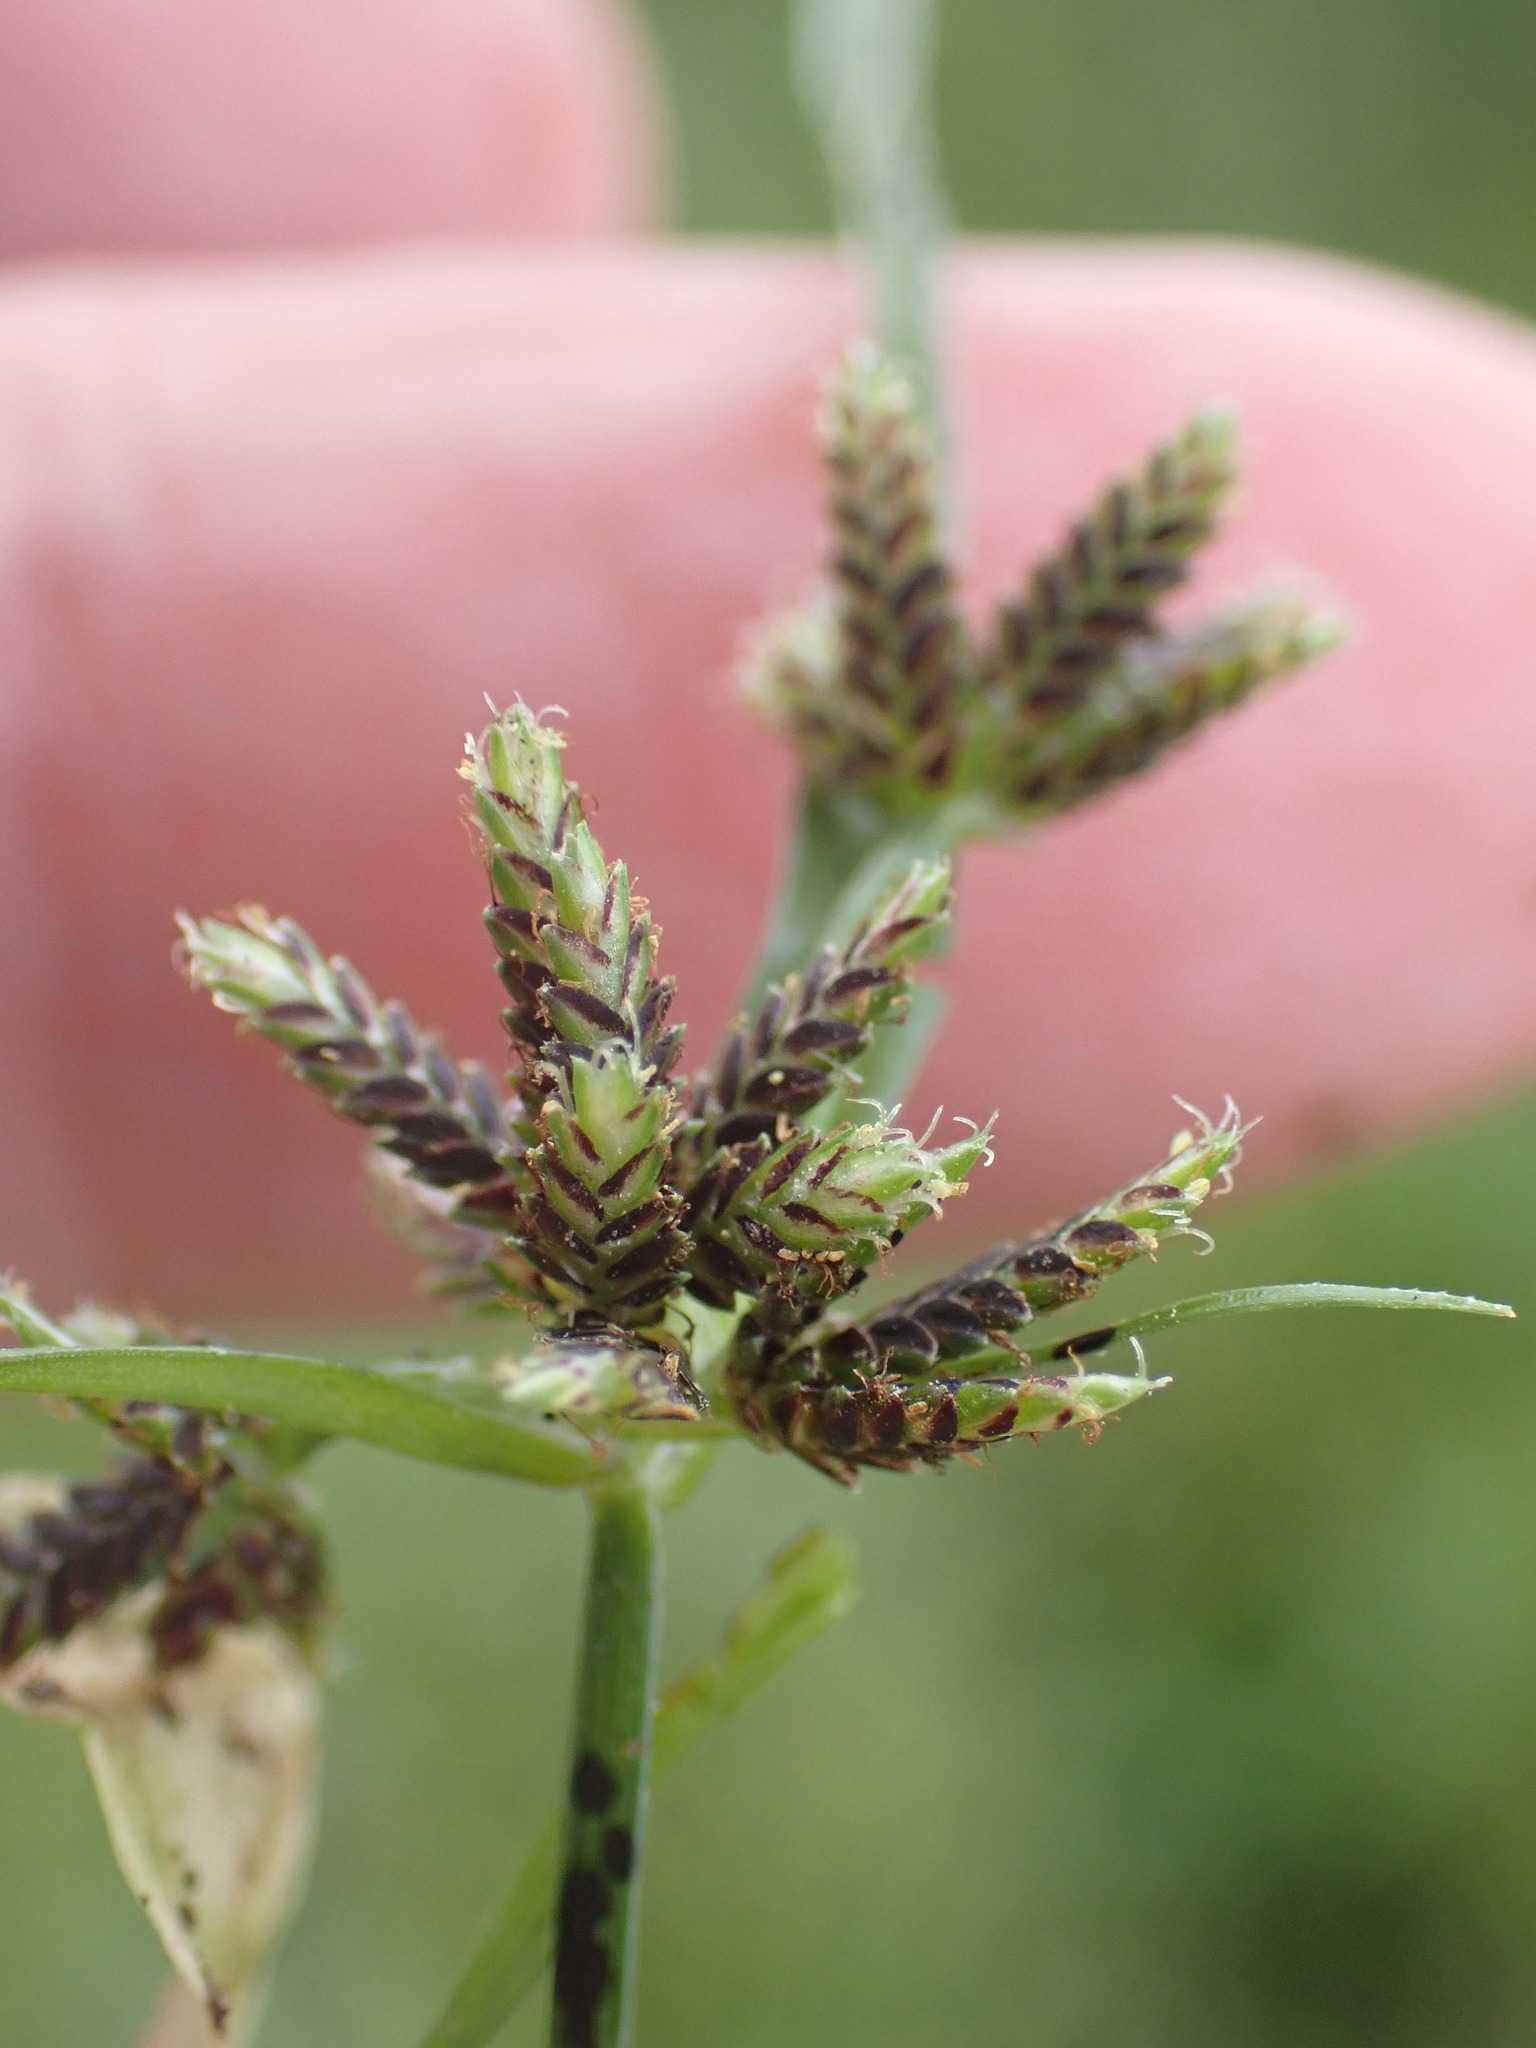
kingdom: Plantae
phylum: Tracheophyta
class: Liliopsida
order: Poales
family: Cyperaceae
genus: Cyperus
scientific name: Cyperus fuscus
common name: Brown galingale
